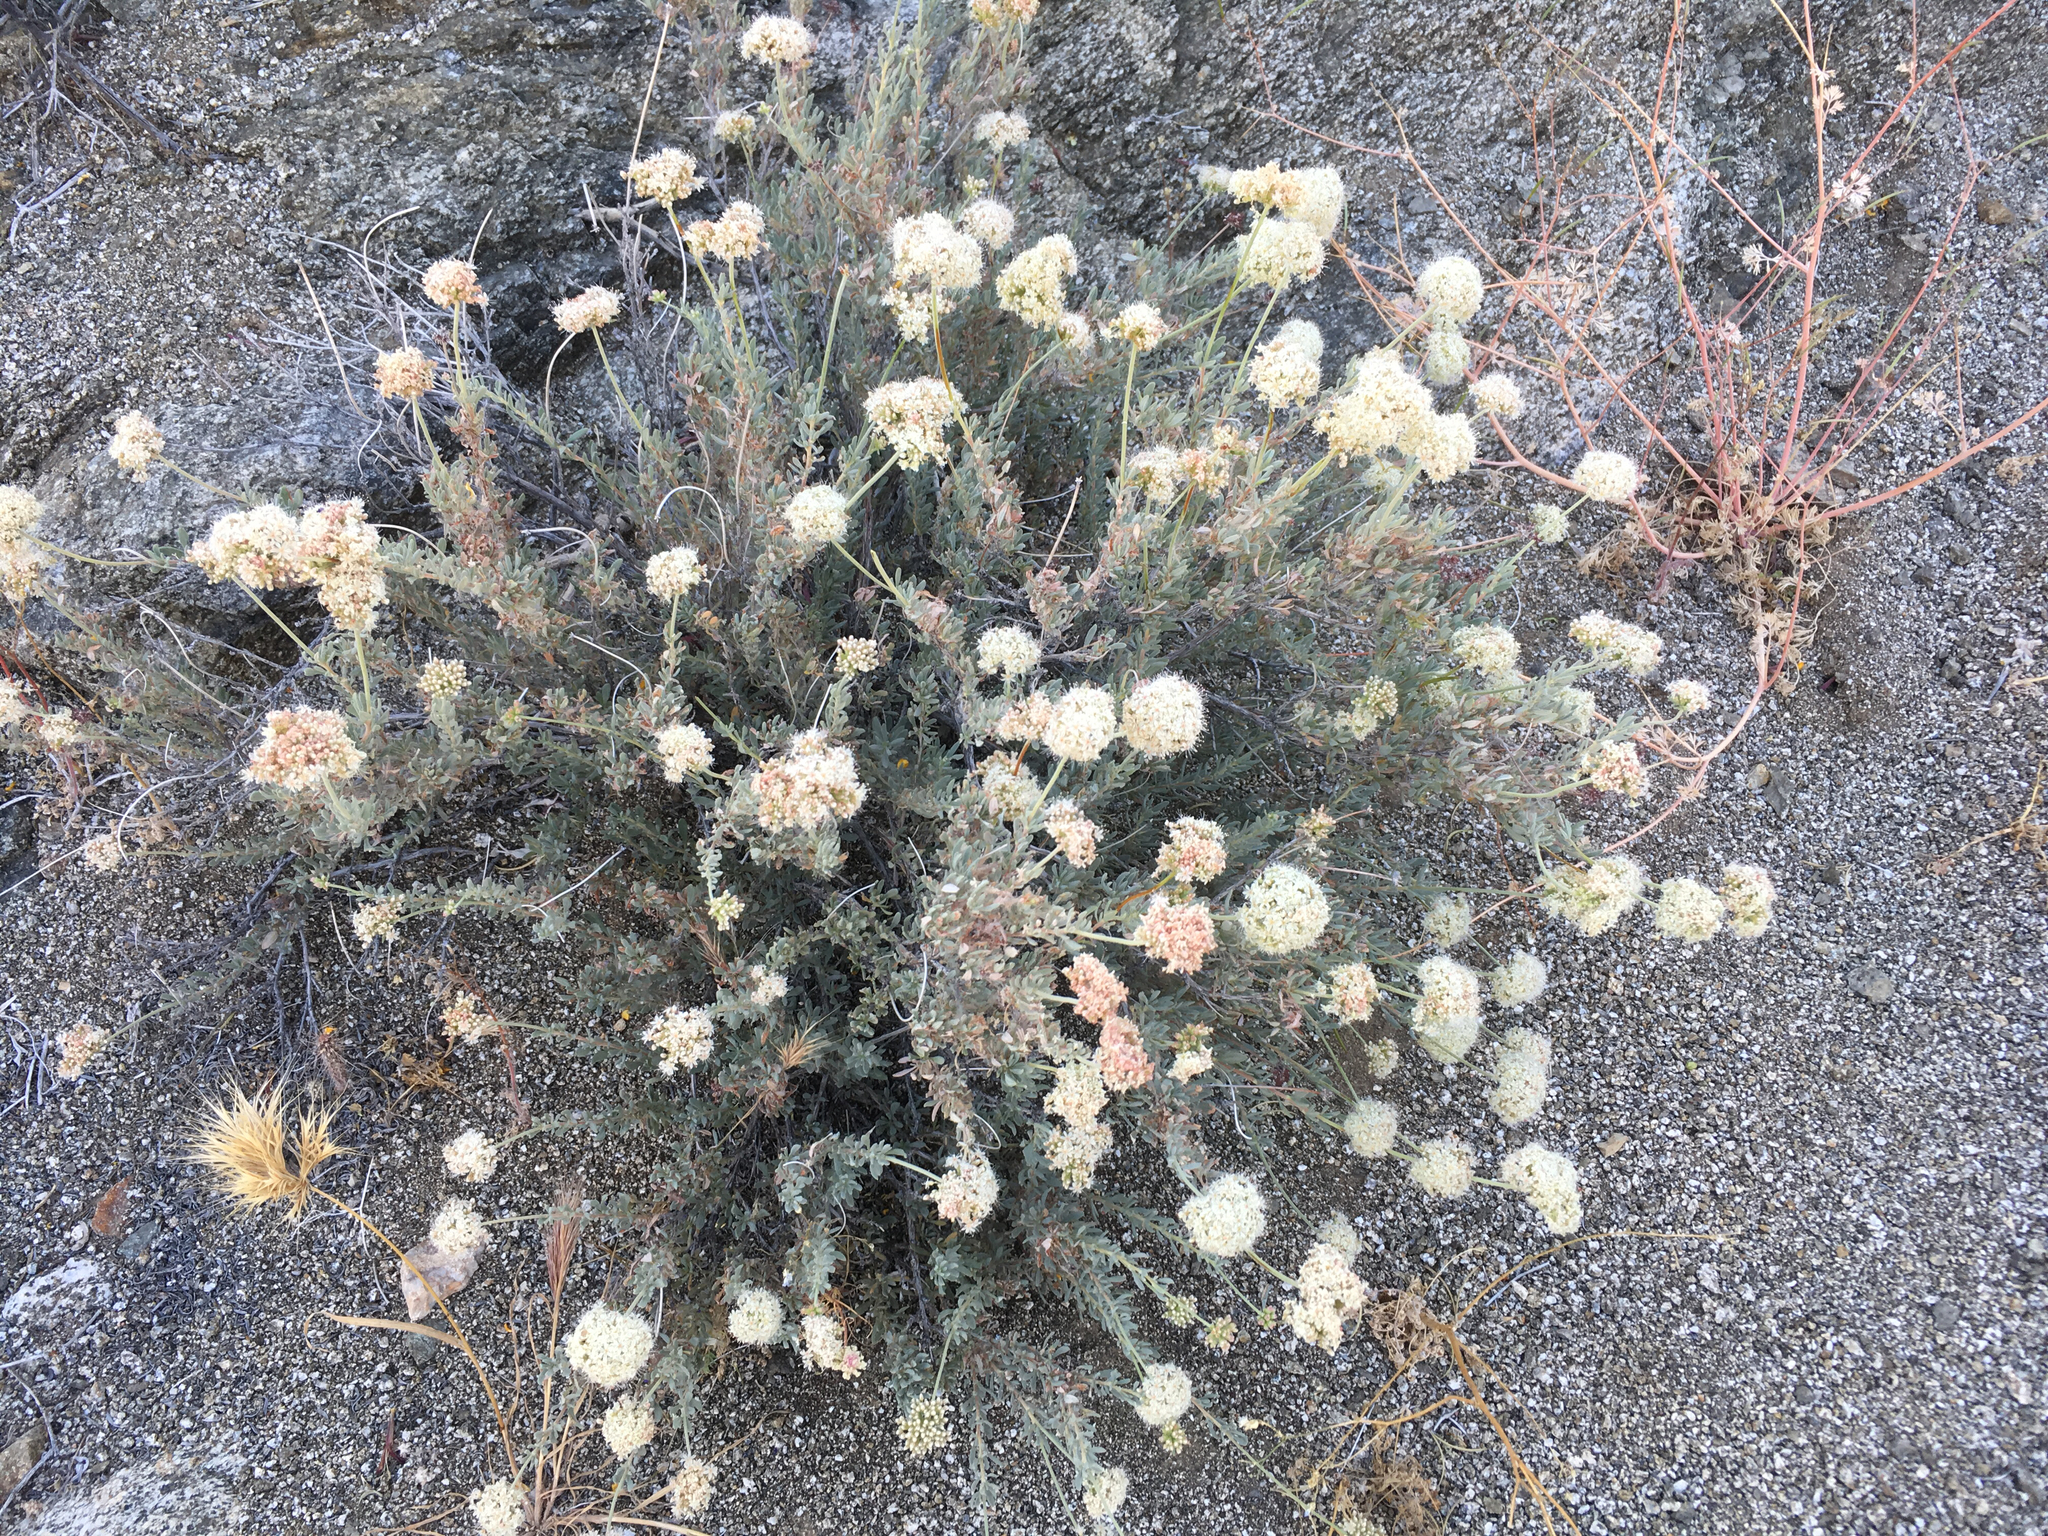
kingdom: Plantae
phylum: Tracheophyta
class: Magnoliopsida
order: Caryophyllales
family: Polygonaceae
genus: Eriogonum
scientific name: Eriogonum fasciculatum
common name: California wild buckwheat
